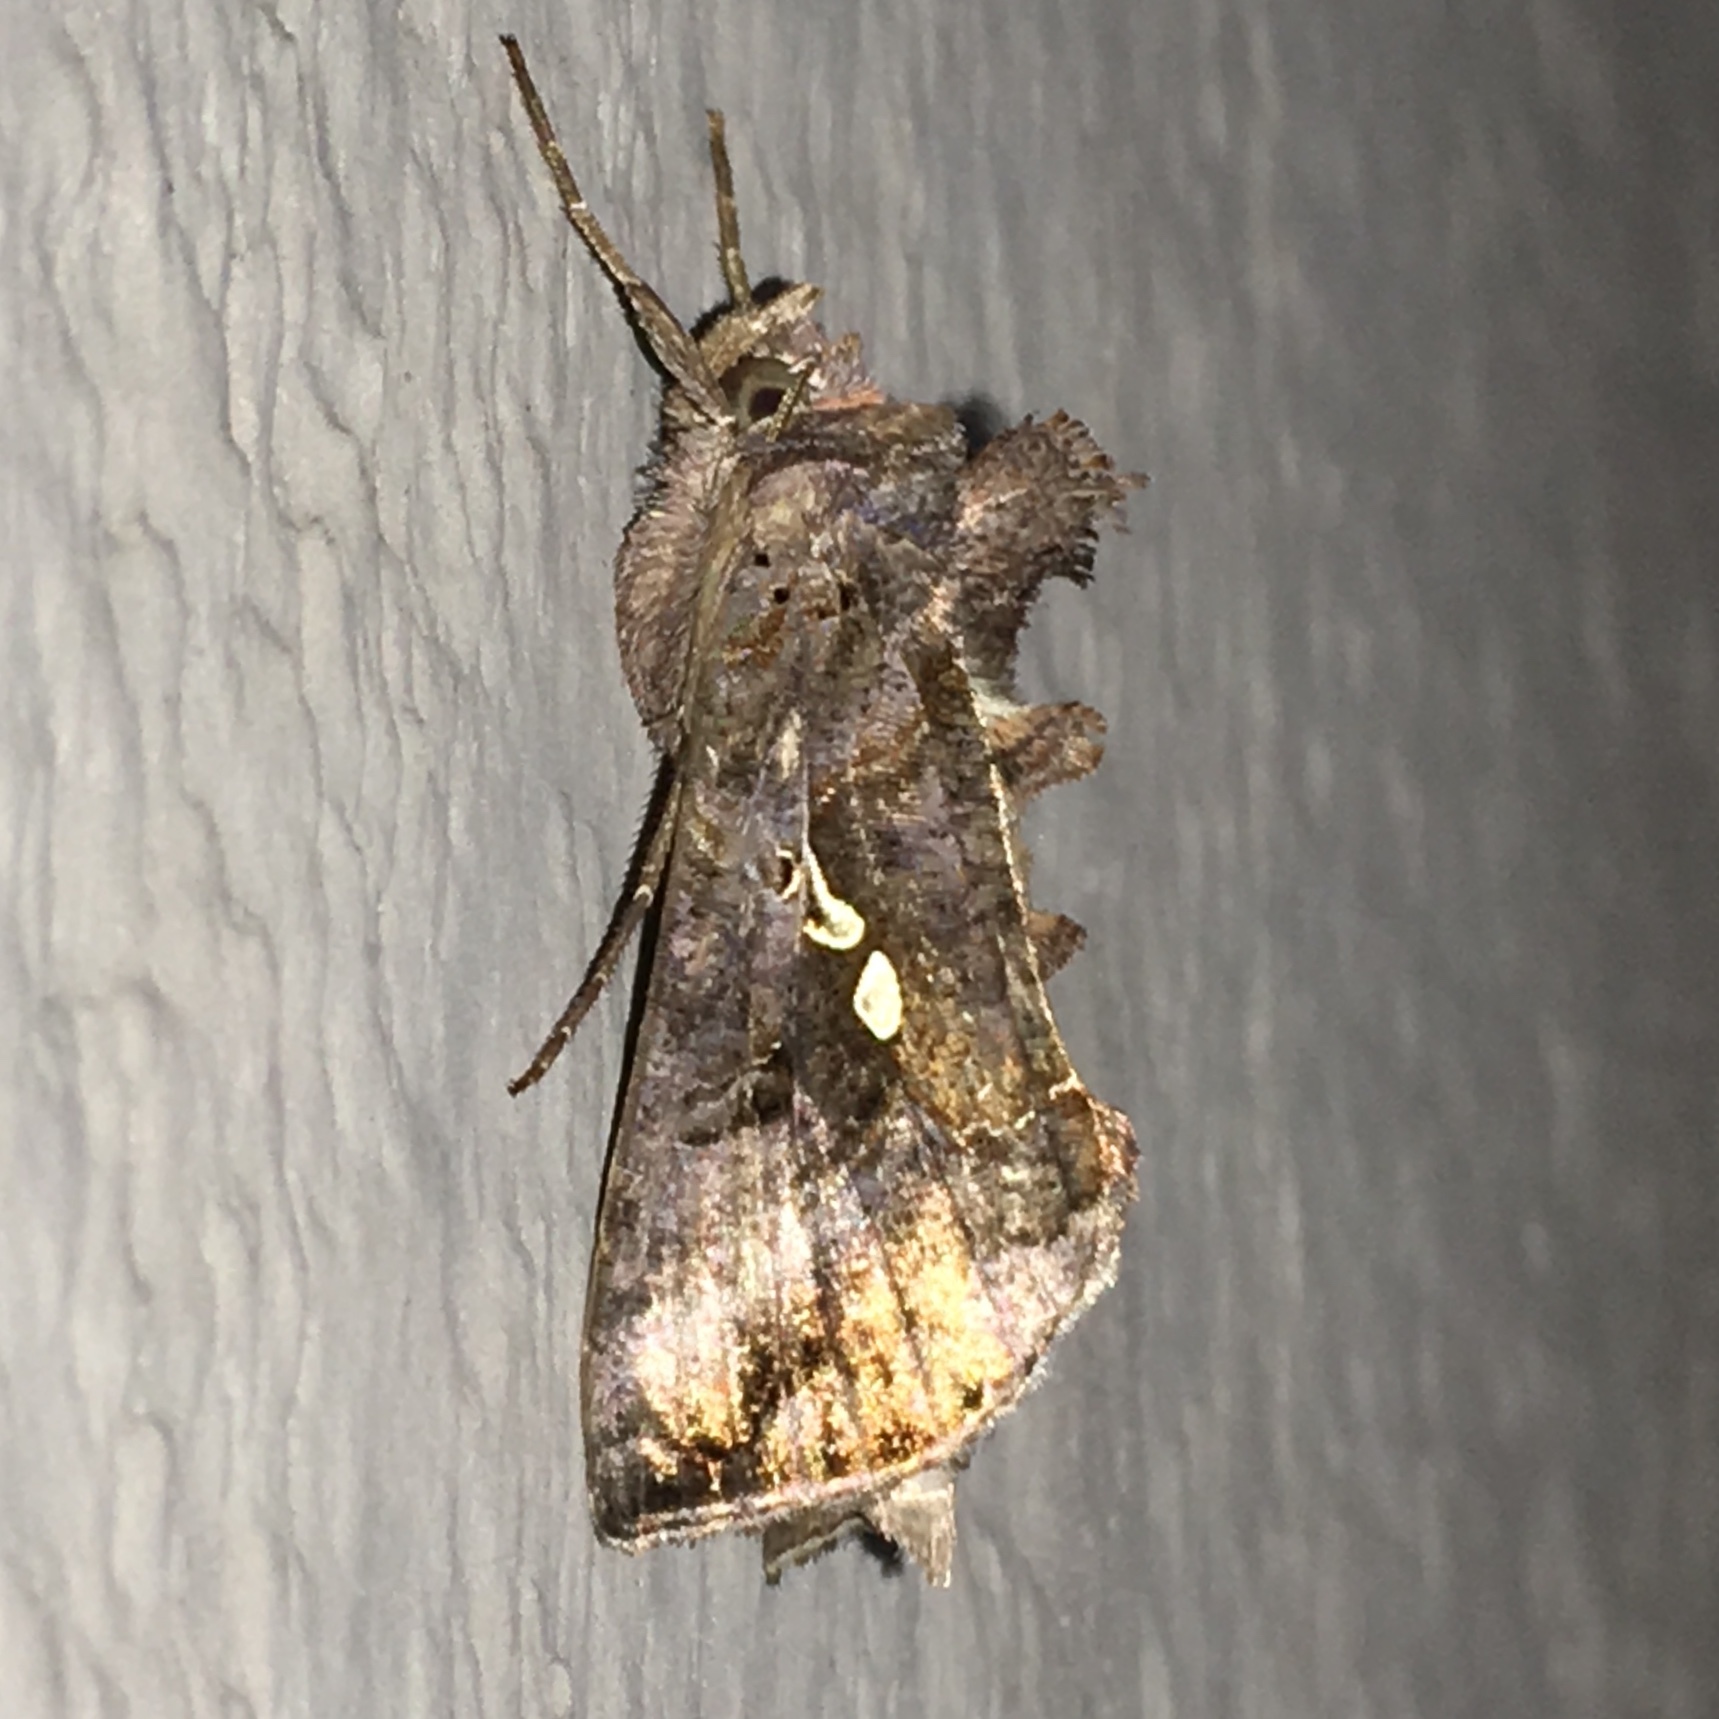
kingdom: Animalia
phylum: Arthropoda
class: Insecta
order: Lepidoptera
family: Noctuidae
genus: Autographa
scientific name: Autographa precationis
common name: Common looper moth
